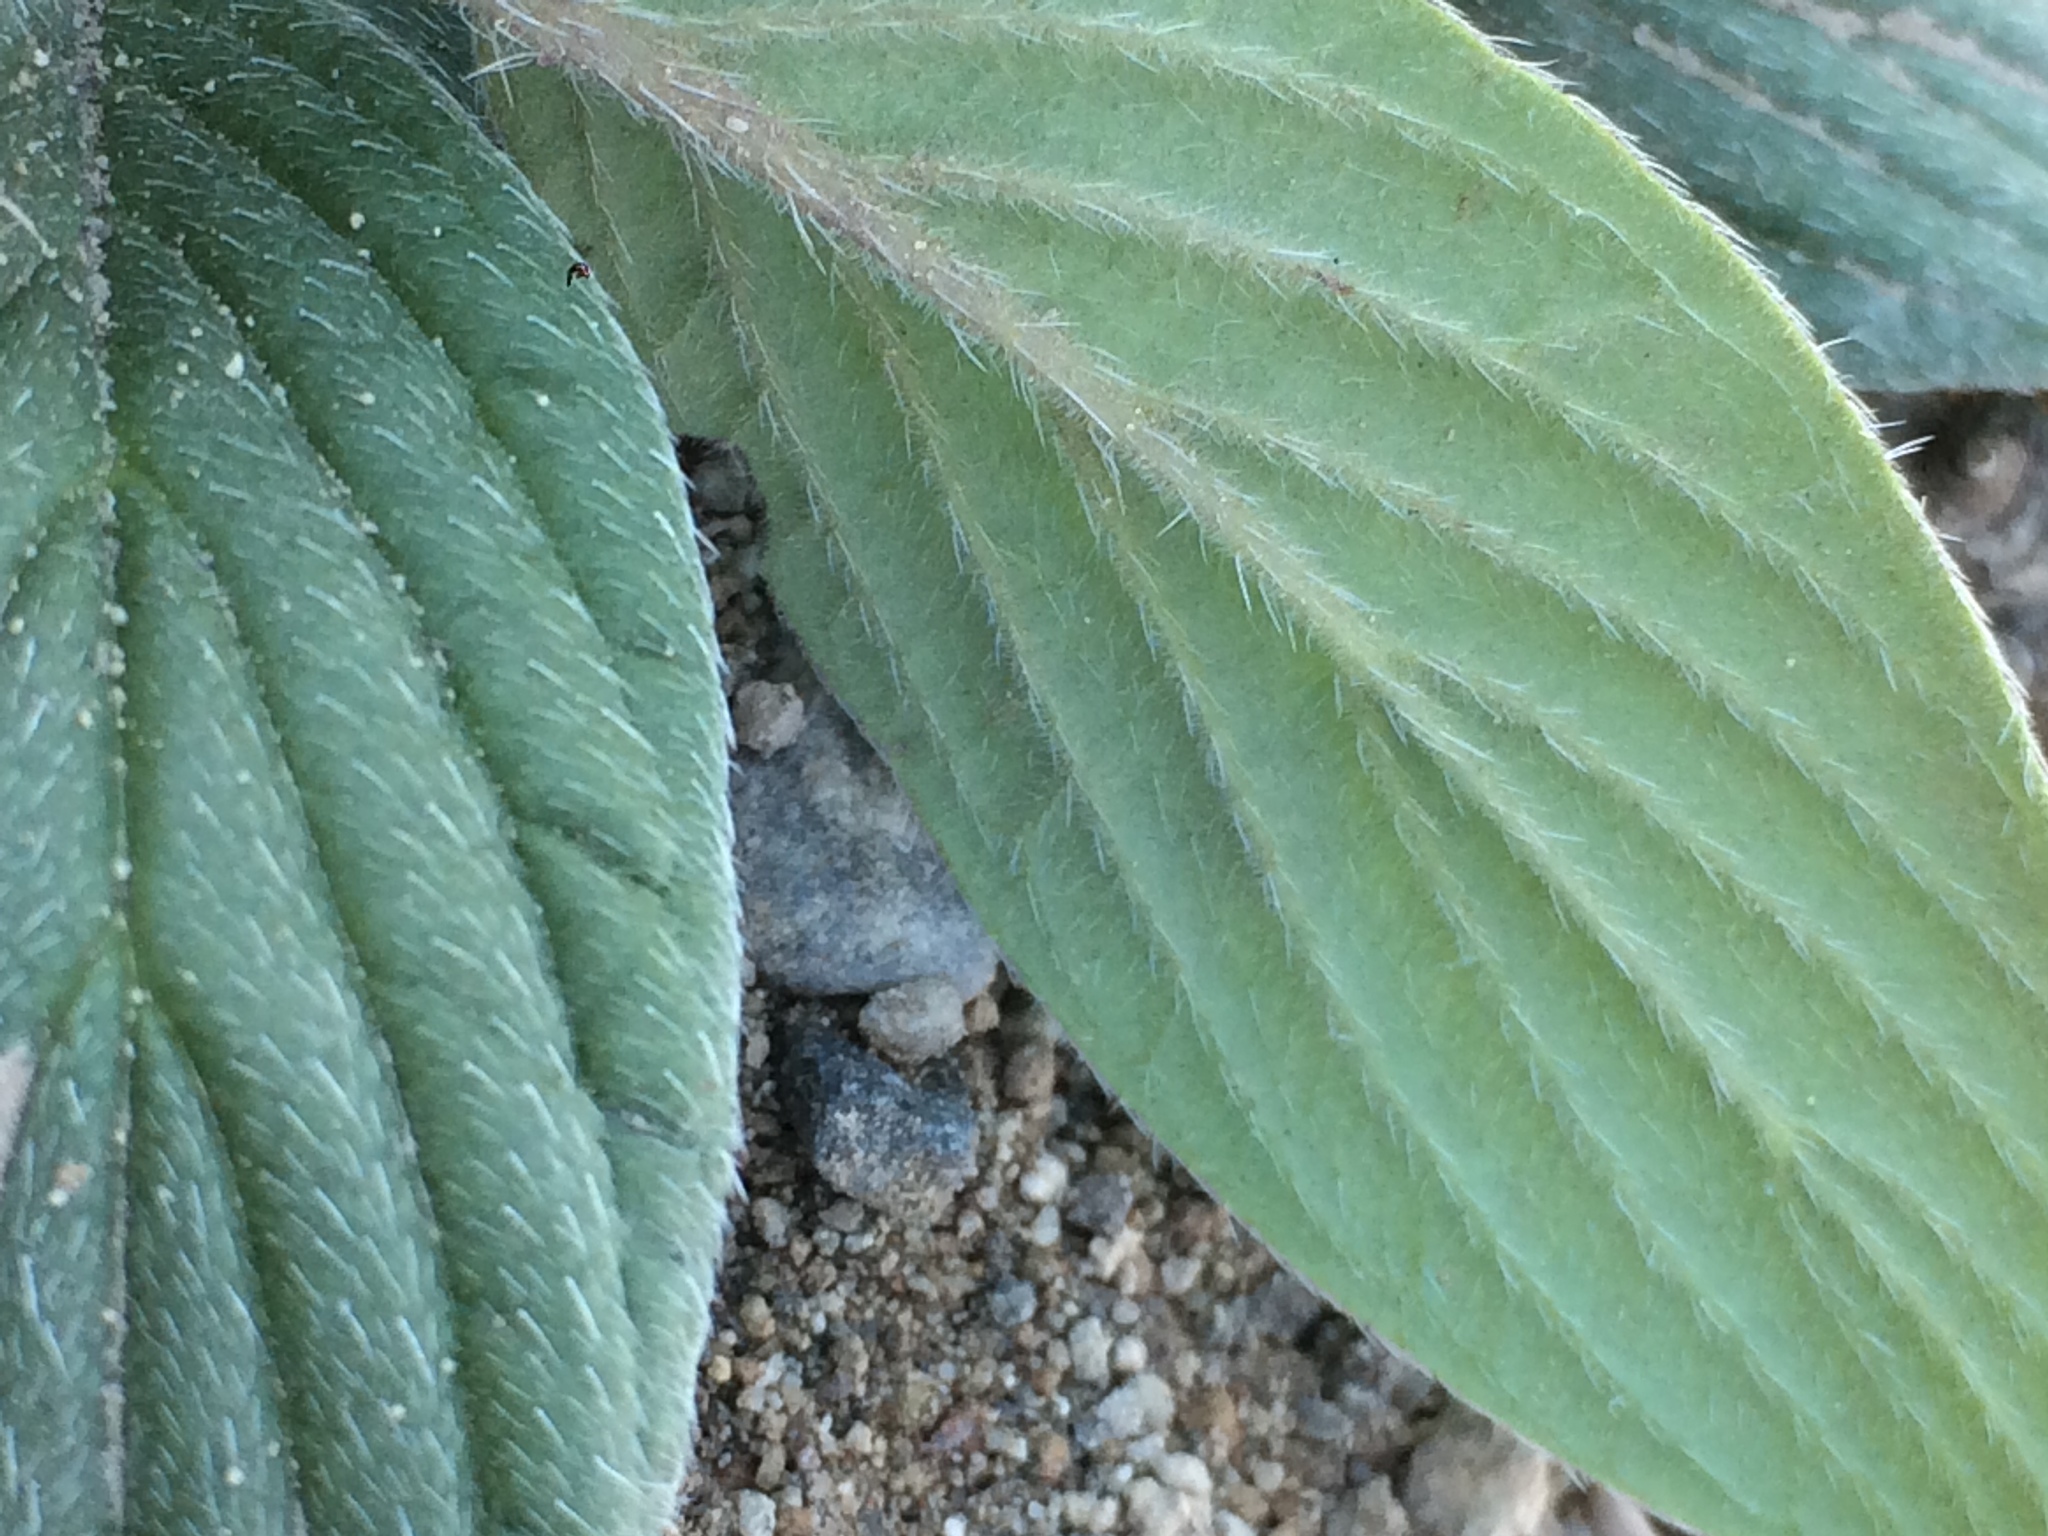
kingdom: Plantae
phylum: Tracheophyta
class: Magnoliopsida
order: Boraginales
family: Hydrophyllaceae
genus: Phacelia
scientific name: Phacelia hastata
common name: Silver-leaved phacelia
